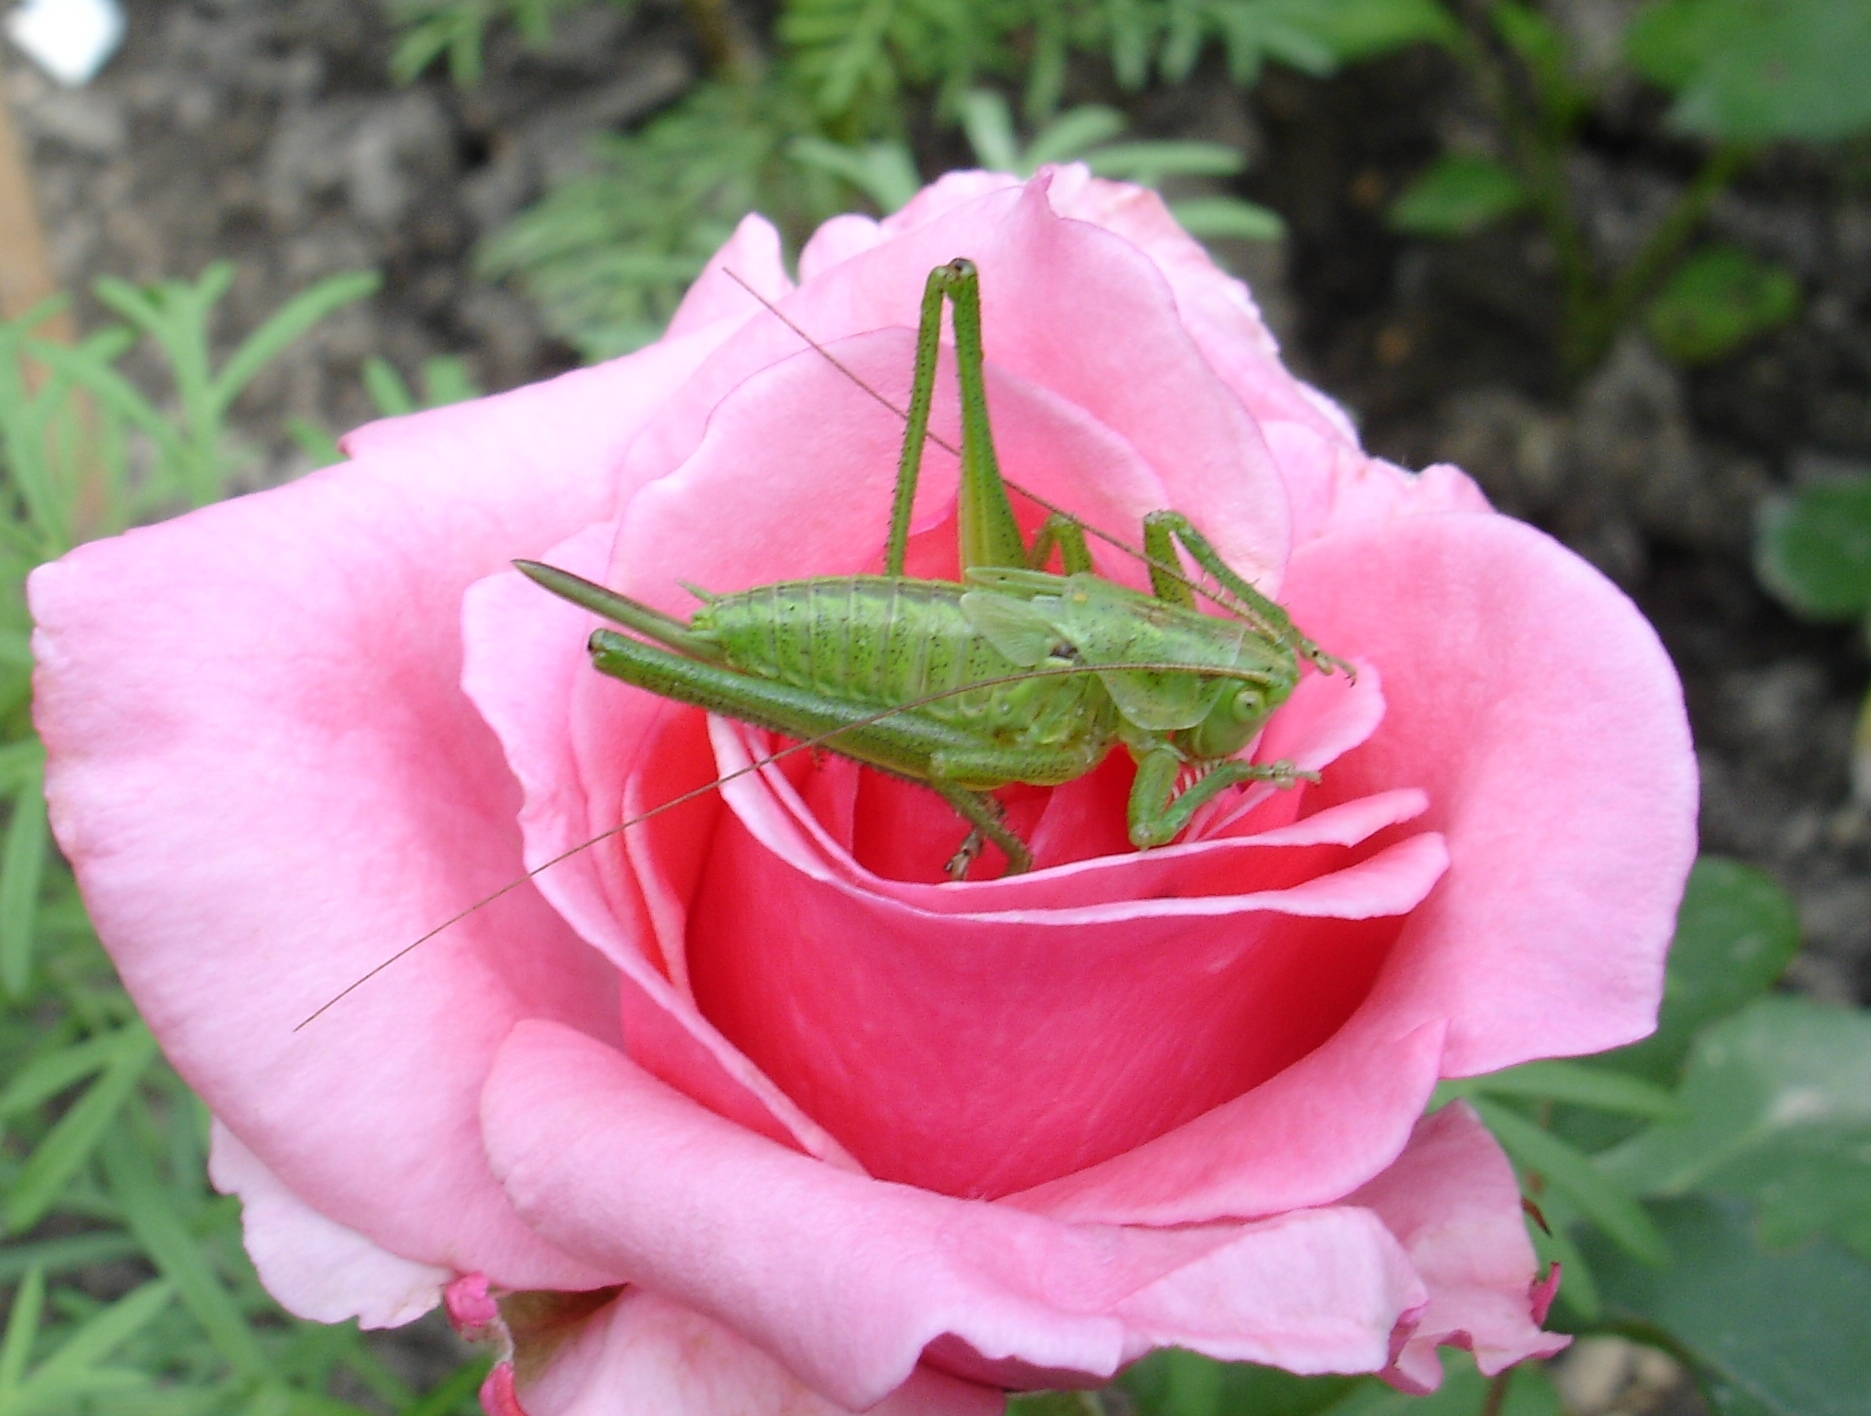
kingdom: Animalia
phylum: Arthropoda
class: Insecta
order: Orthoptera
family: Tettigoniidae
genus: Tettigonia
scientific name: Tettigonia viridissima
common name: Great green bush-cricket
